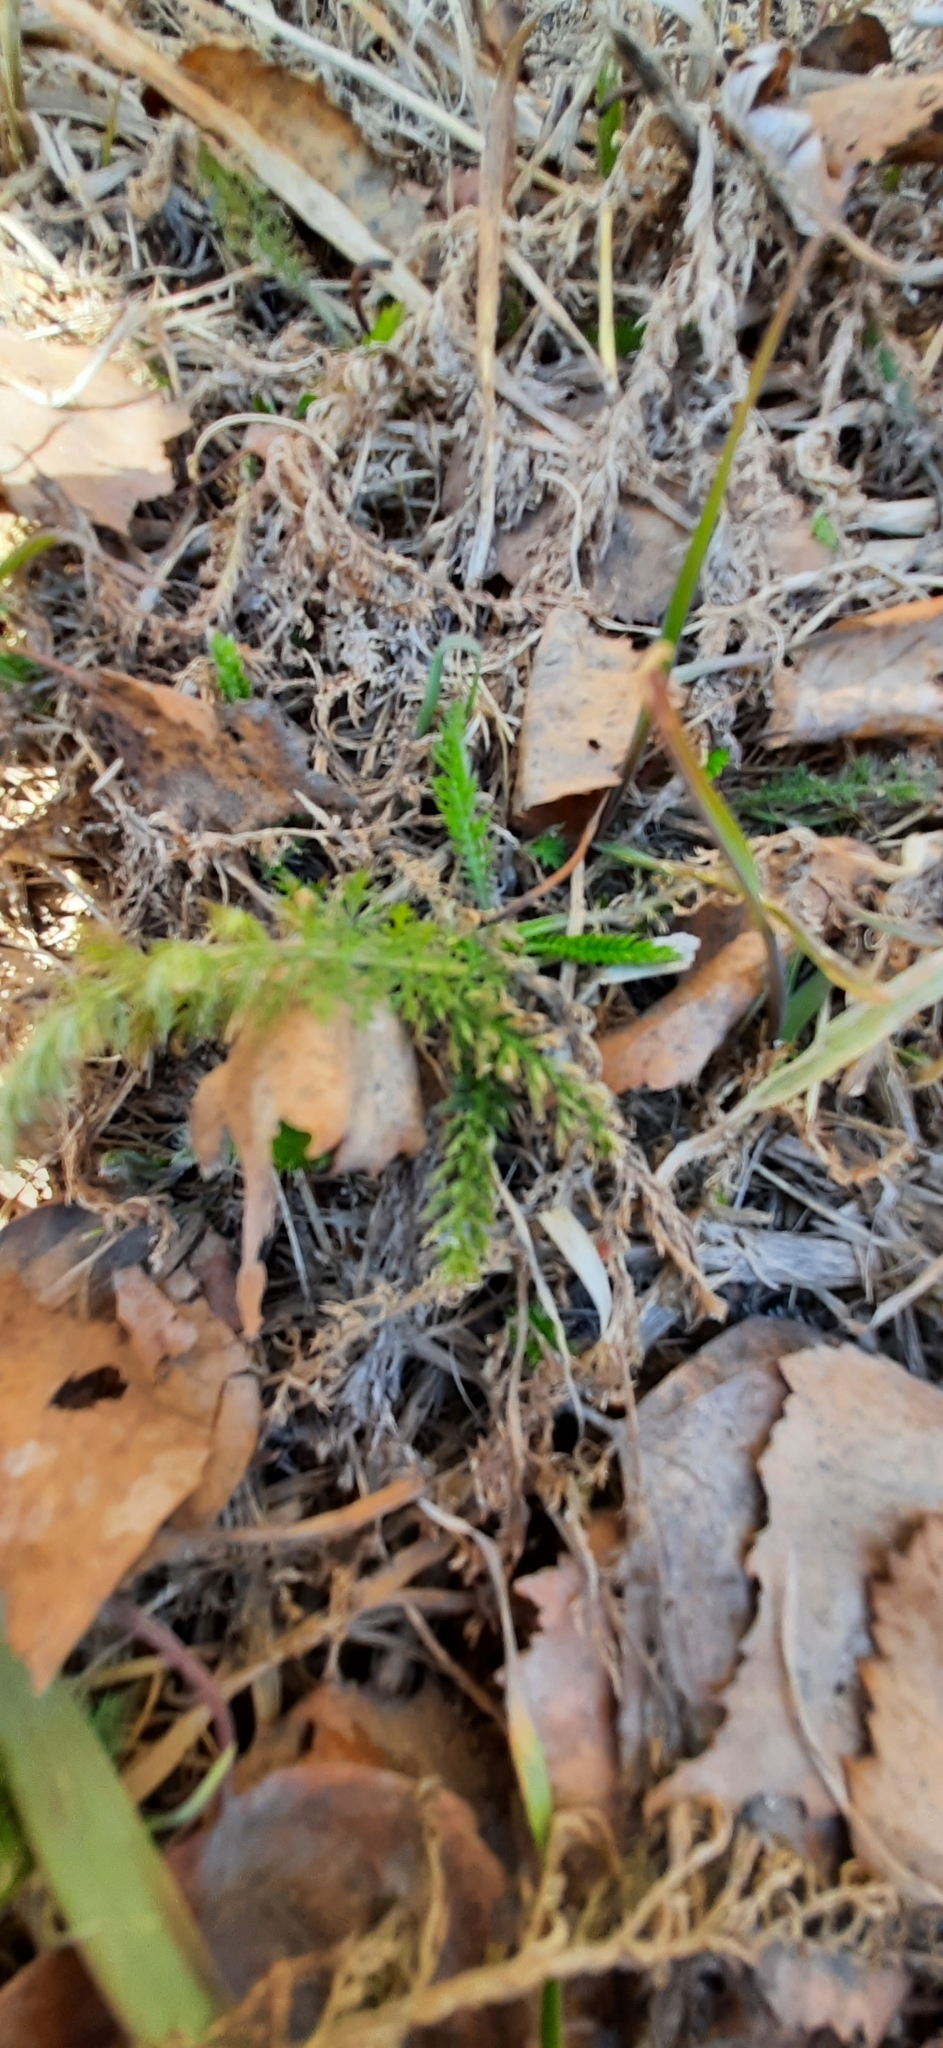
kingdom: Plantae
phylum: Tracheophyta
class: Magnoliopsida
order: Asterales
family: Asteraceae
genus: Achillea
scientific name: Achillea millefolium
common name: Yarrow
